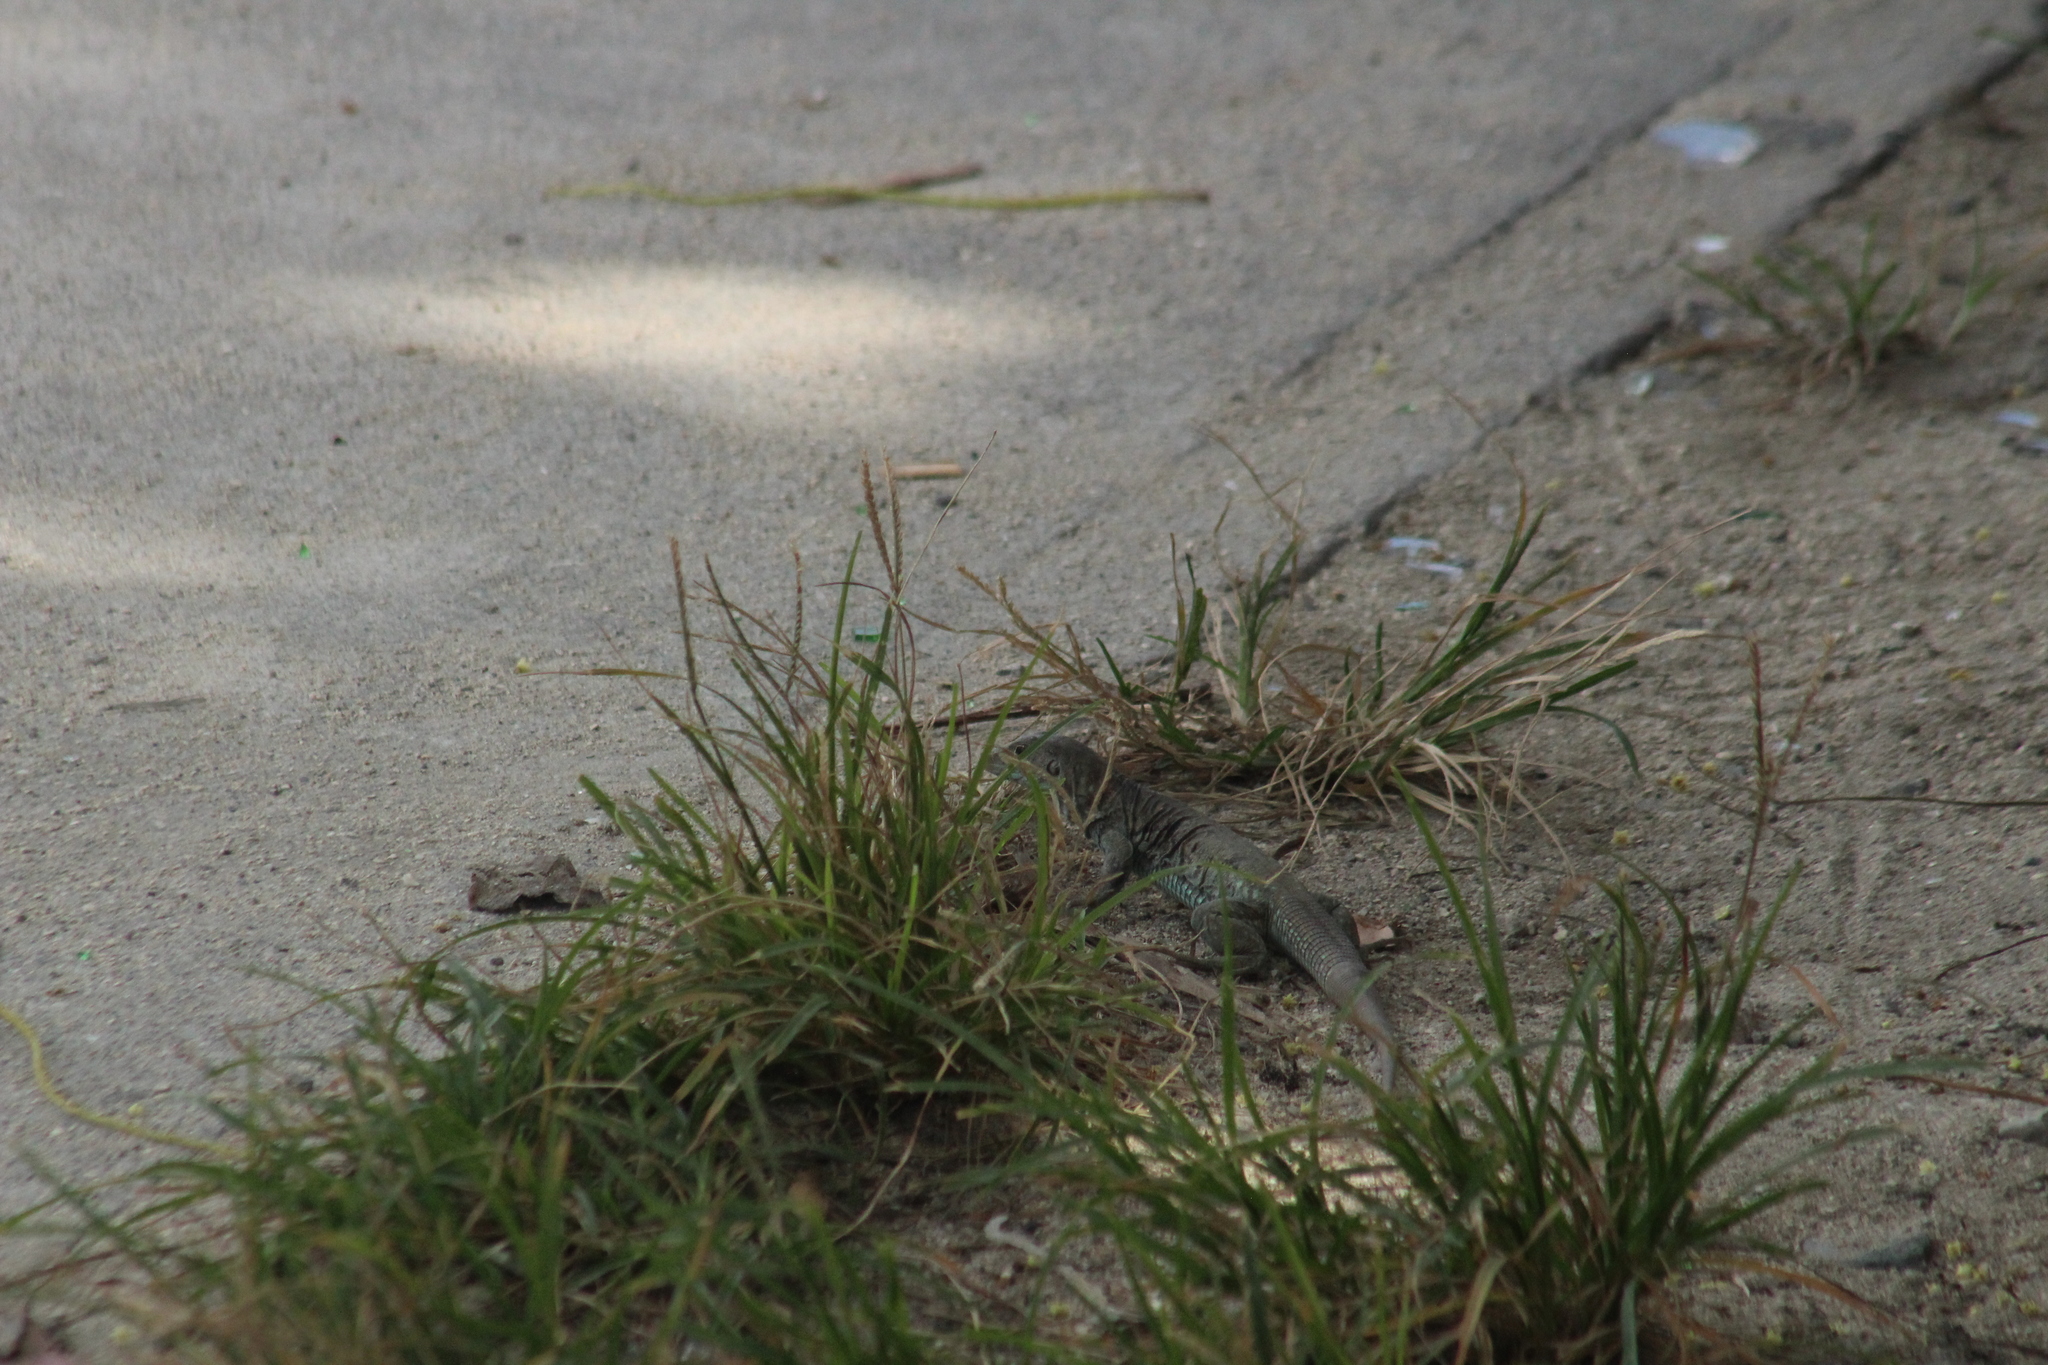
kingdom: Animalia
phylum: Chordata
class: Squamata
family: Teiidae
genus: Pholidoscelis
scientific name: Pholidoscelis plei
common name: Anguilla bank ameiva
